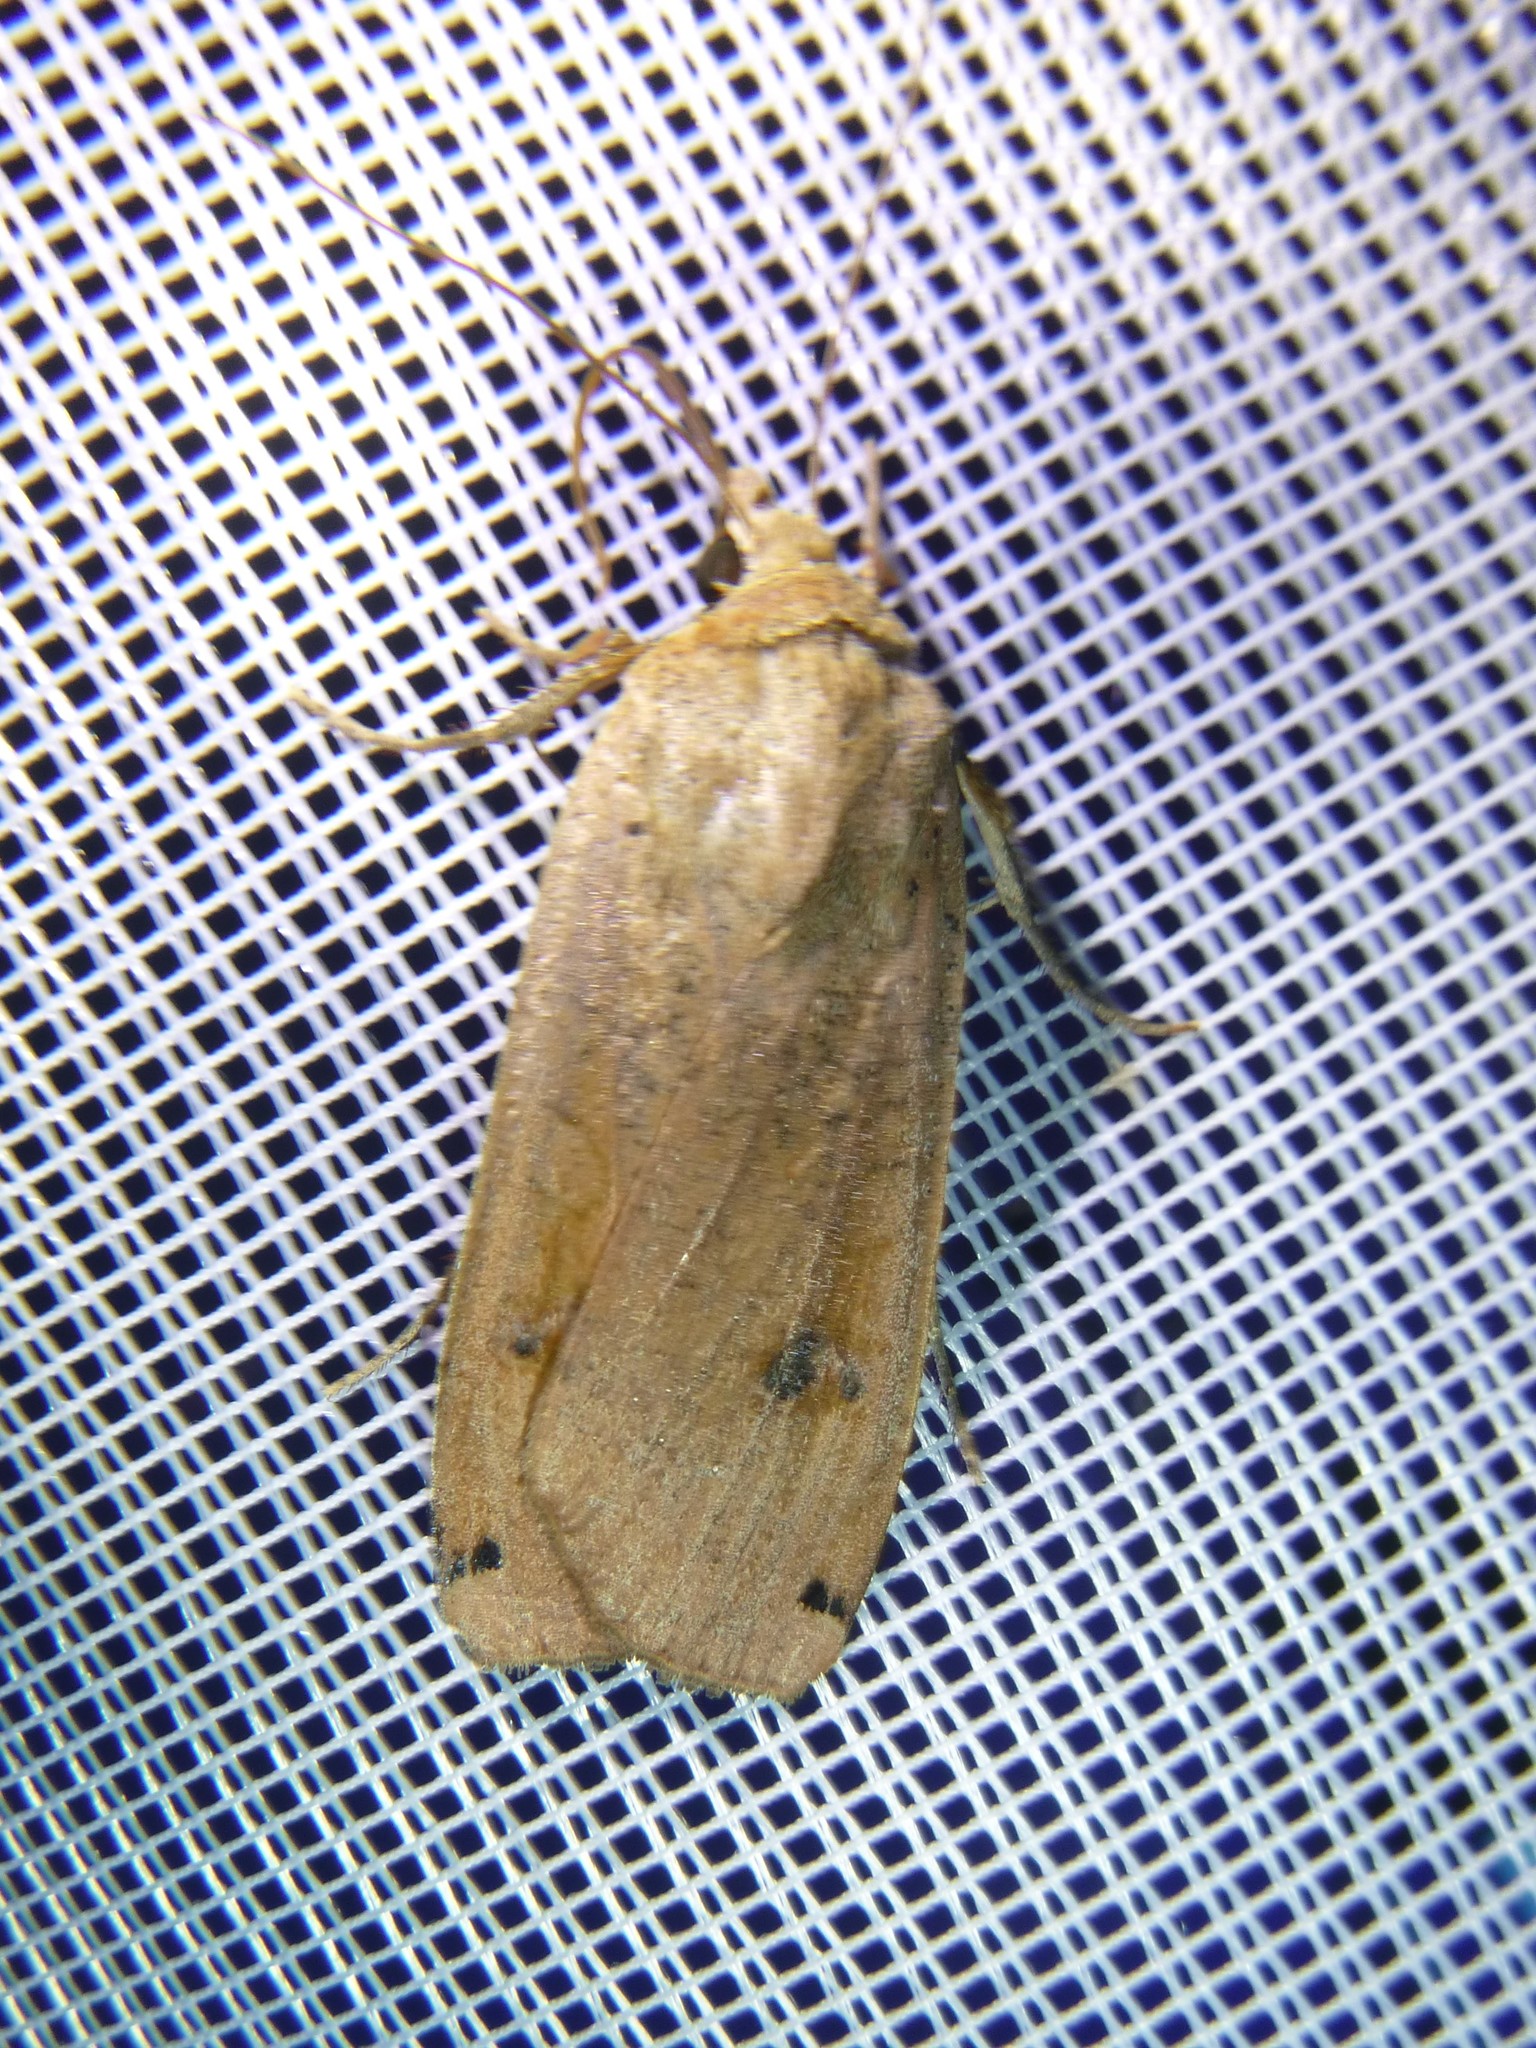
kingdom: Animalia
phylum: Arthropoda
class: Insecta
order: Lepidoptera
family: Noctuidae
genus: Noctua
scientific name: Noctua pronuba
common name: Large yellow underwing
